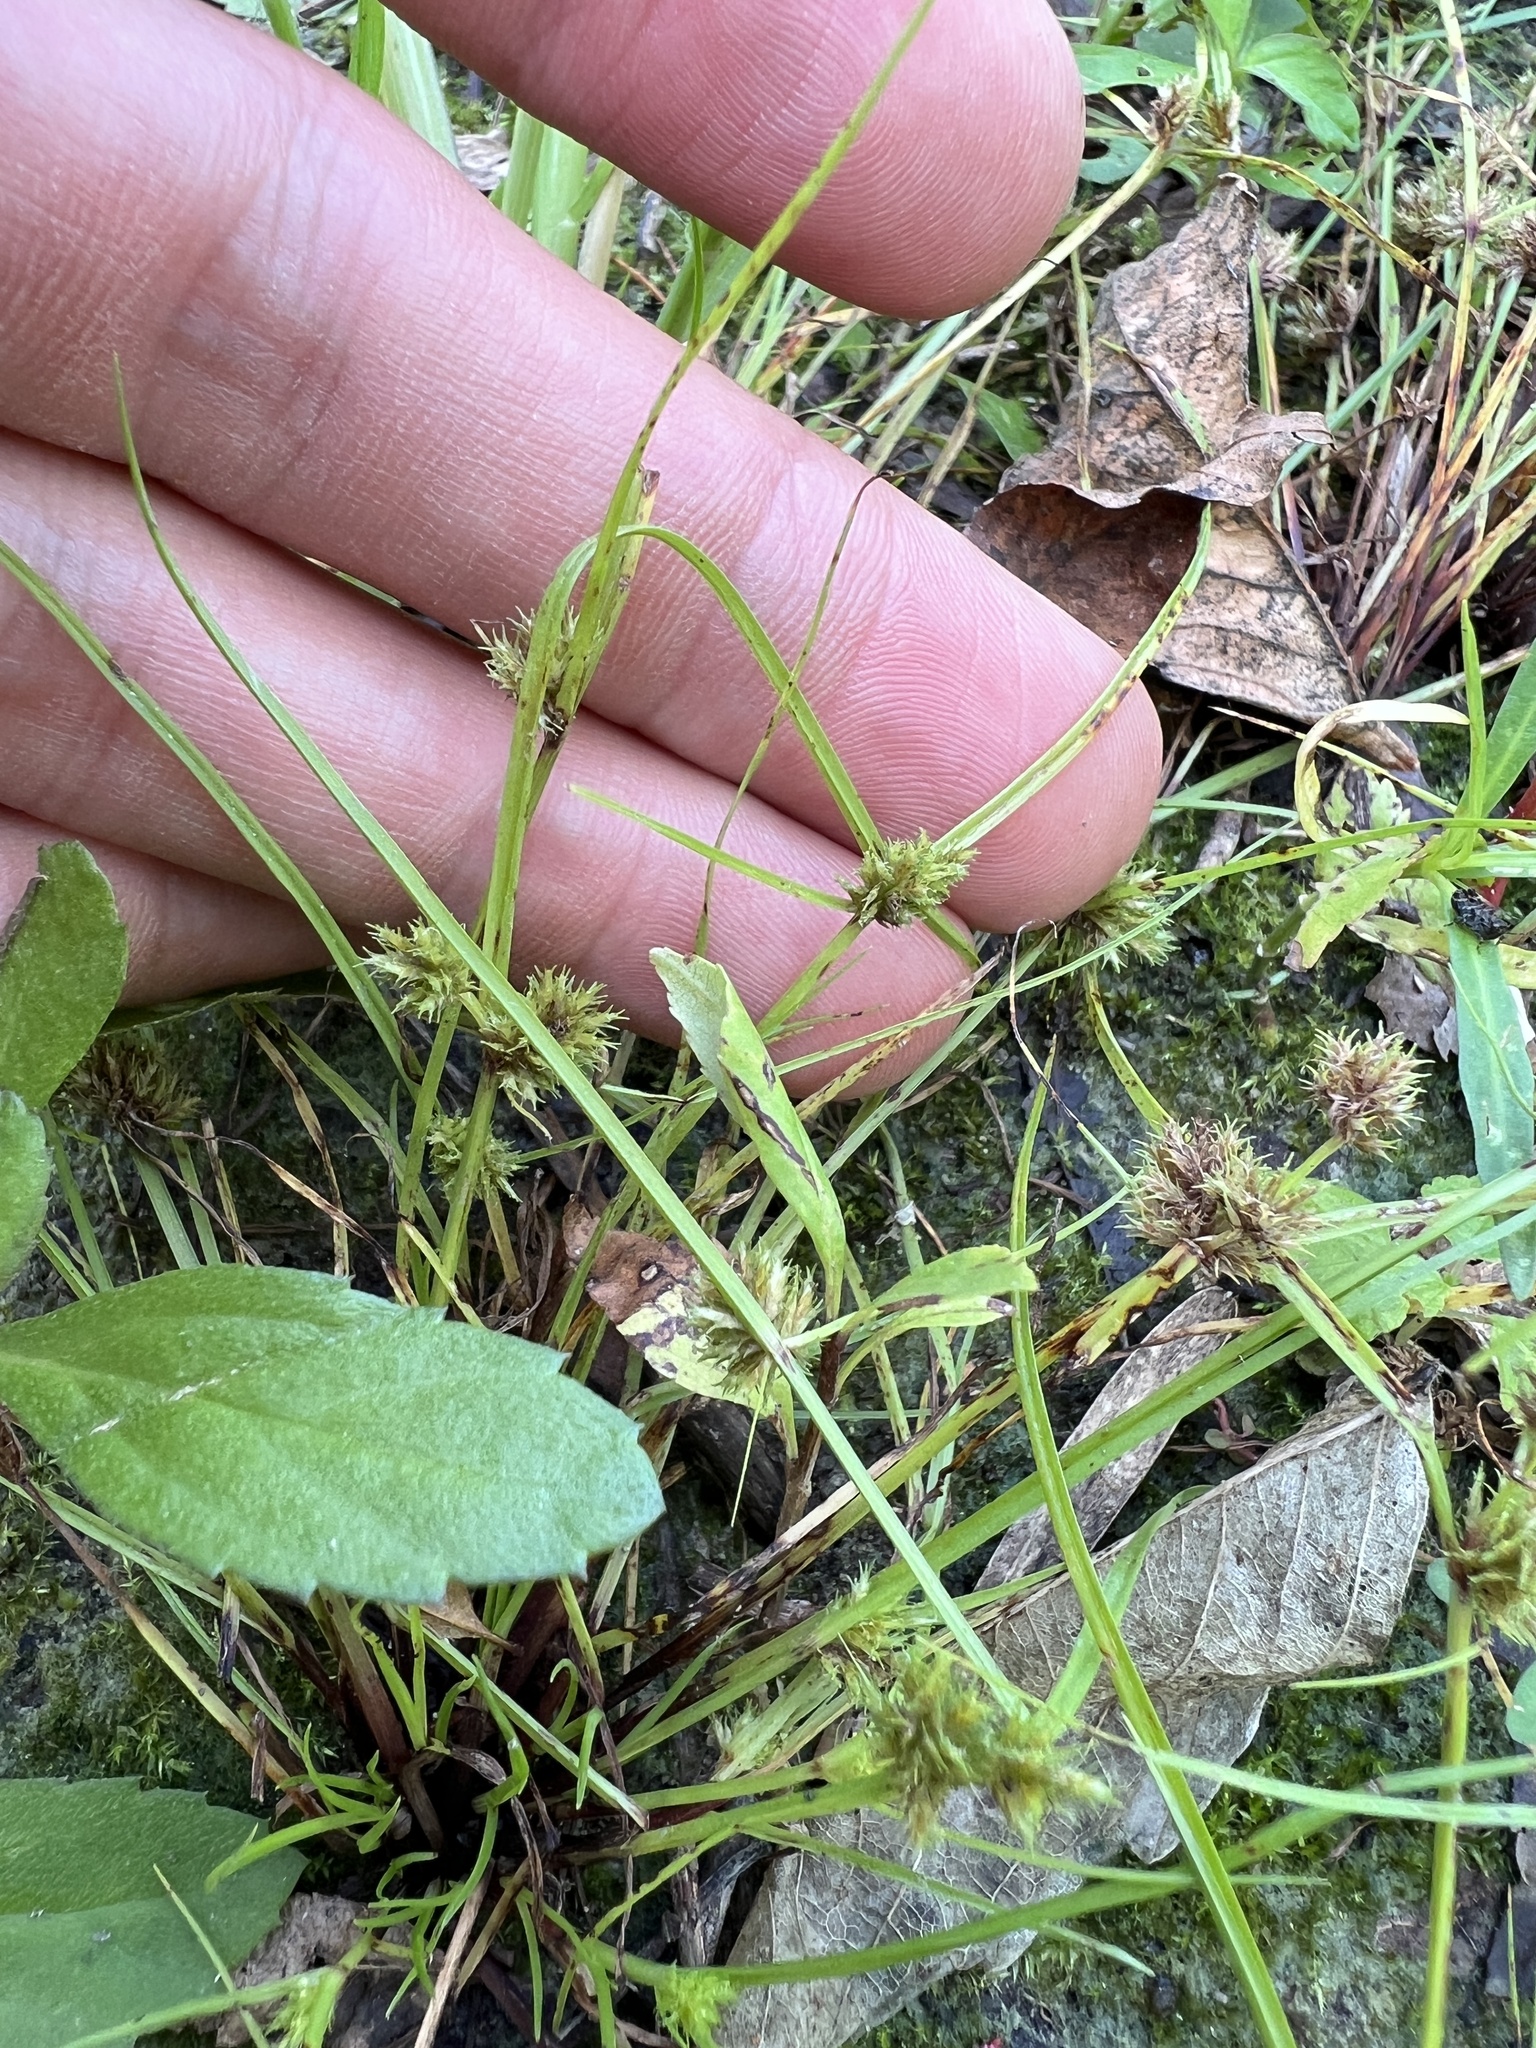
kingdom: Plantae
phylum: Tracheophyta
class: Liliopsida
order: Poales
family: Cyperaceae
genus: Cyperus
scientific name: Cyperus squarrosus
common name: Awned cyperus
